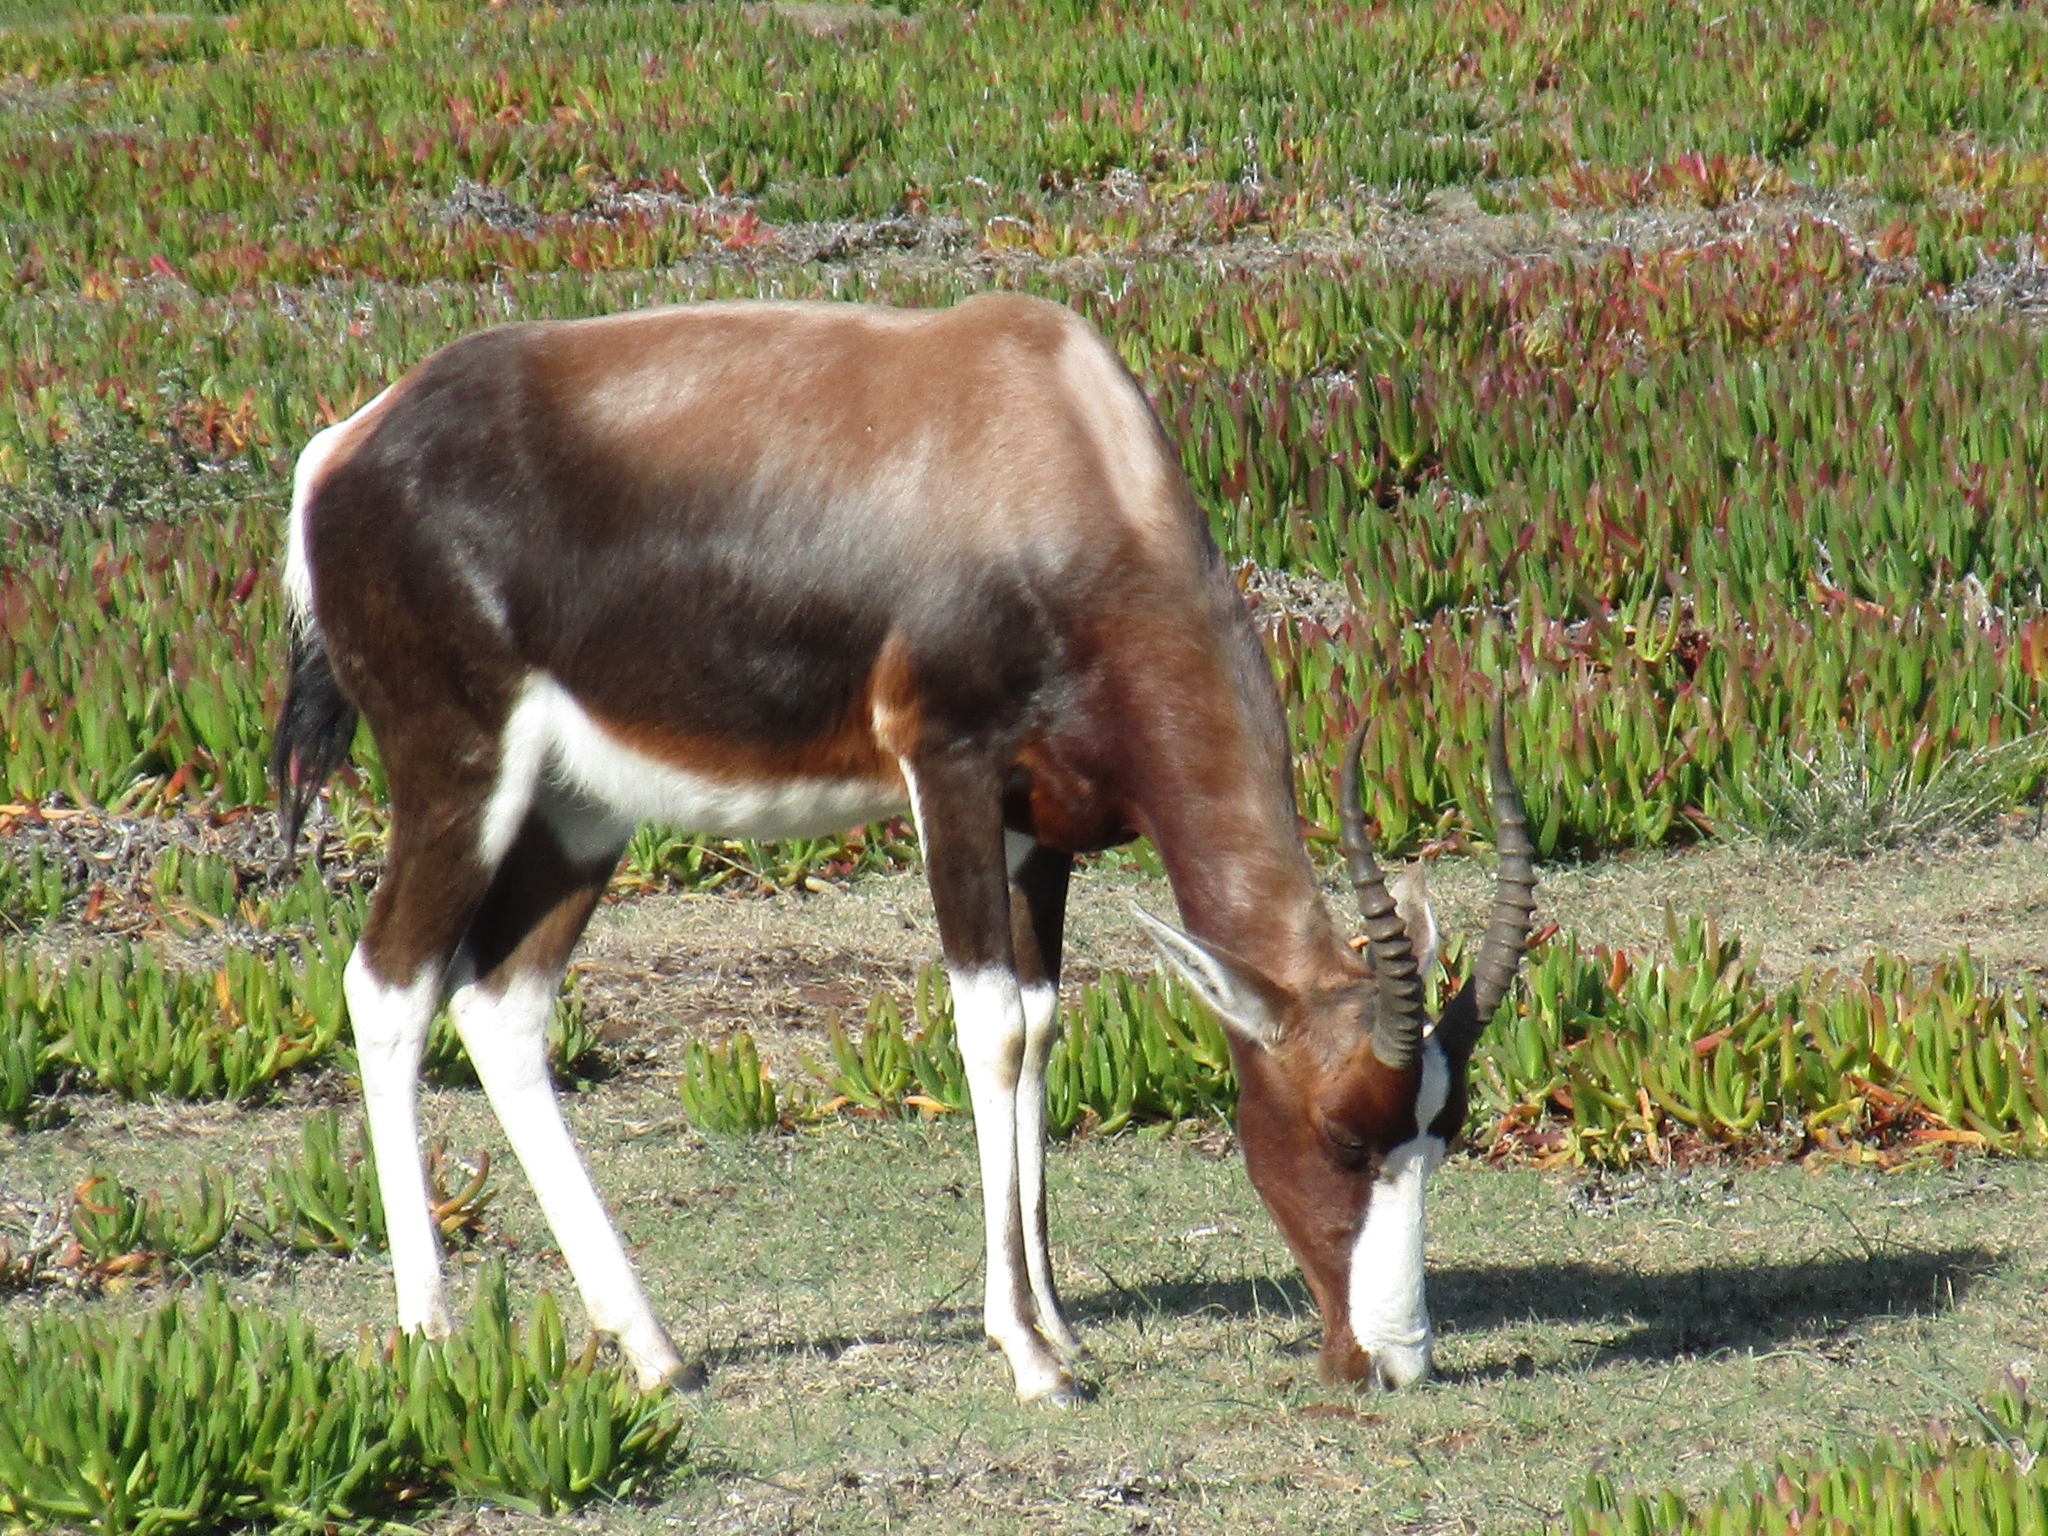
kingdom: Animalia
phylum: Chordata
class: Mammalia
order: Artiodactyla
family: Bovidae
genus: Damaliscus
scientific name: Damaliscus pygargus
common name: Bontebok
